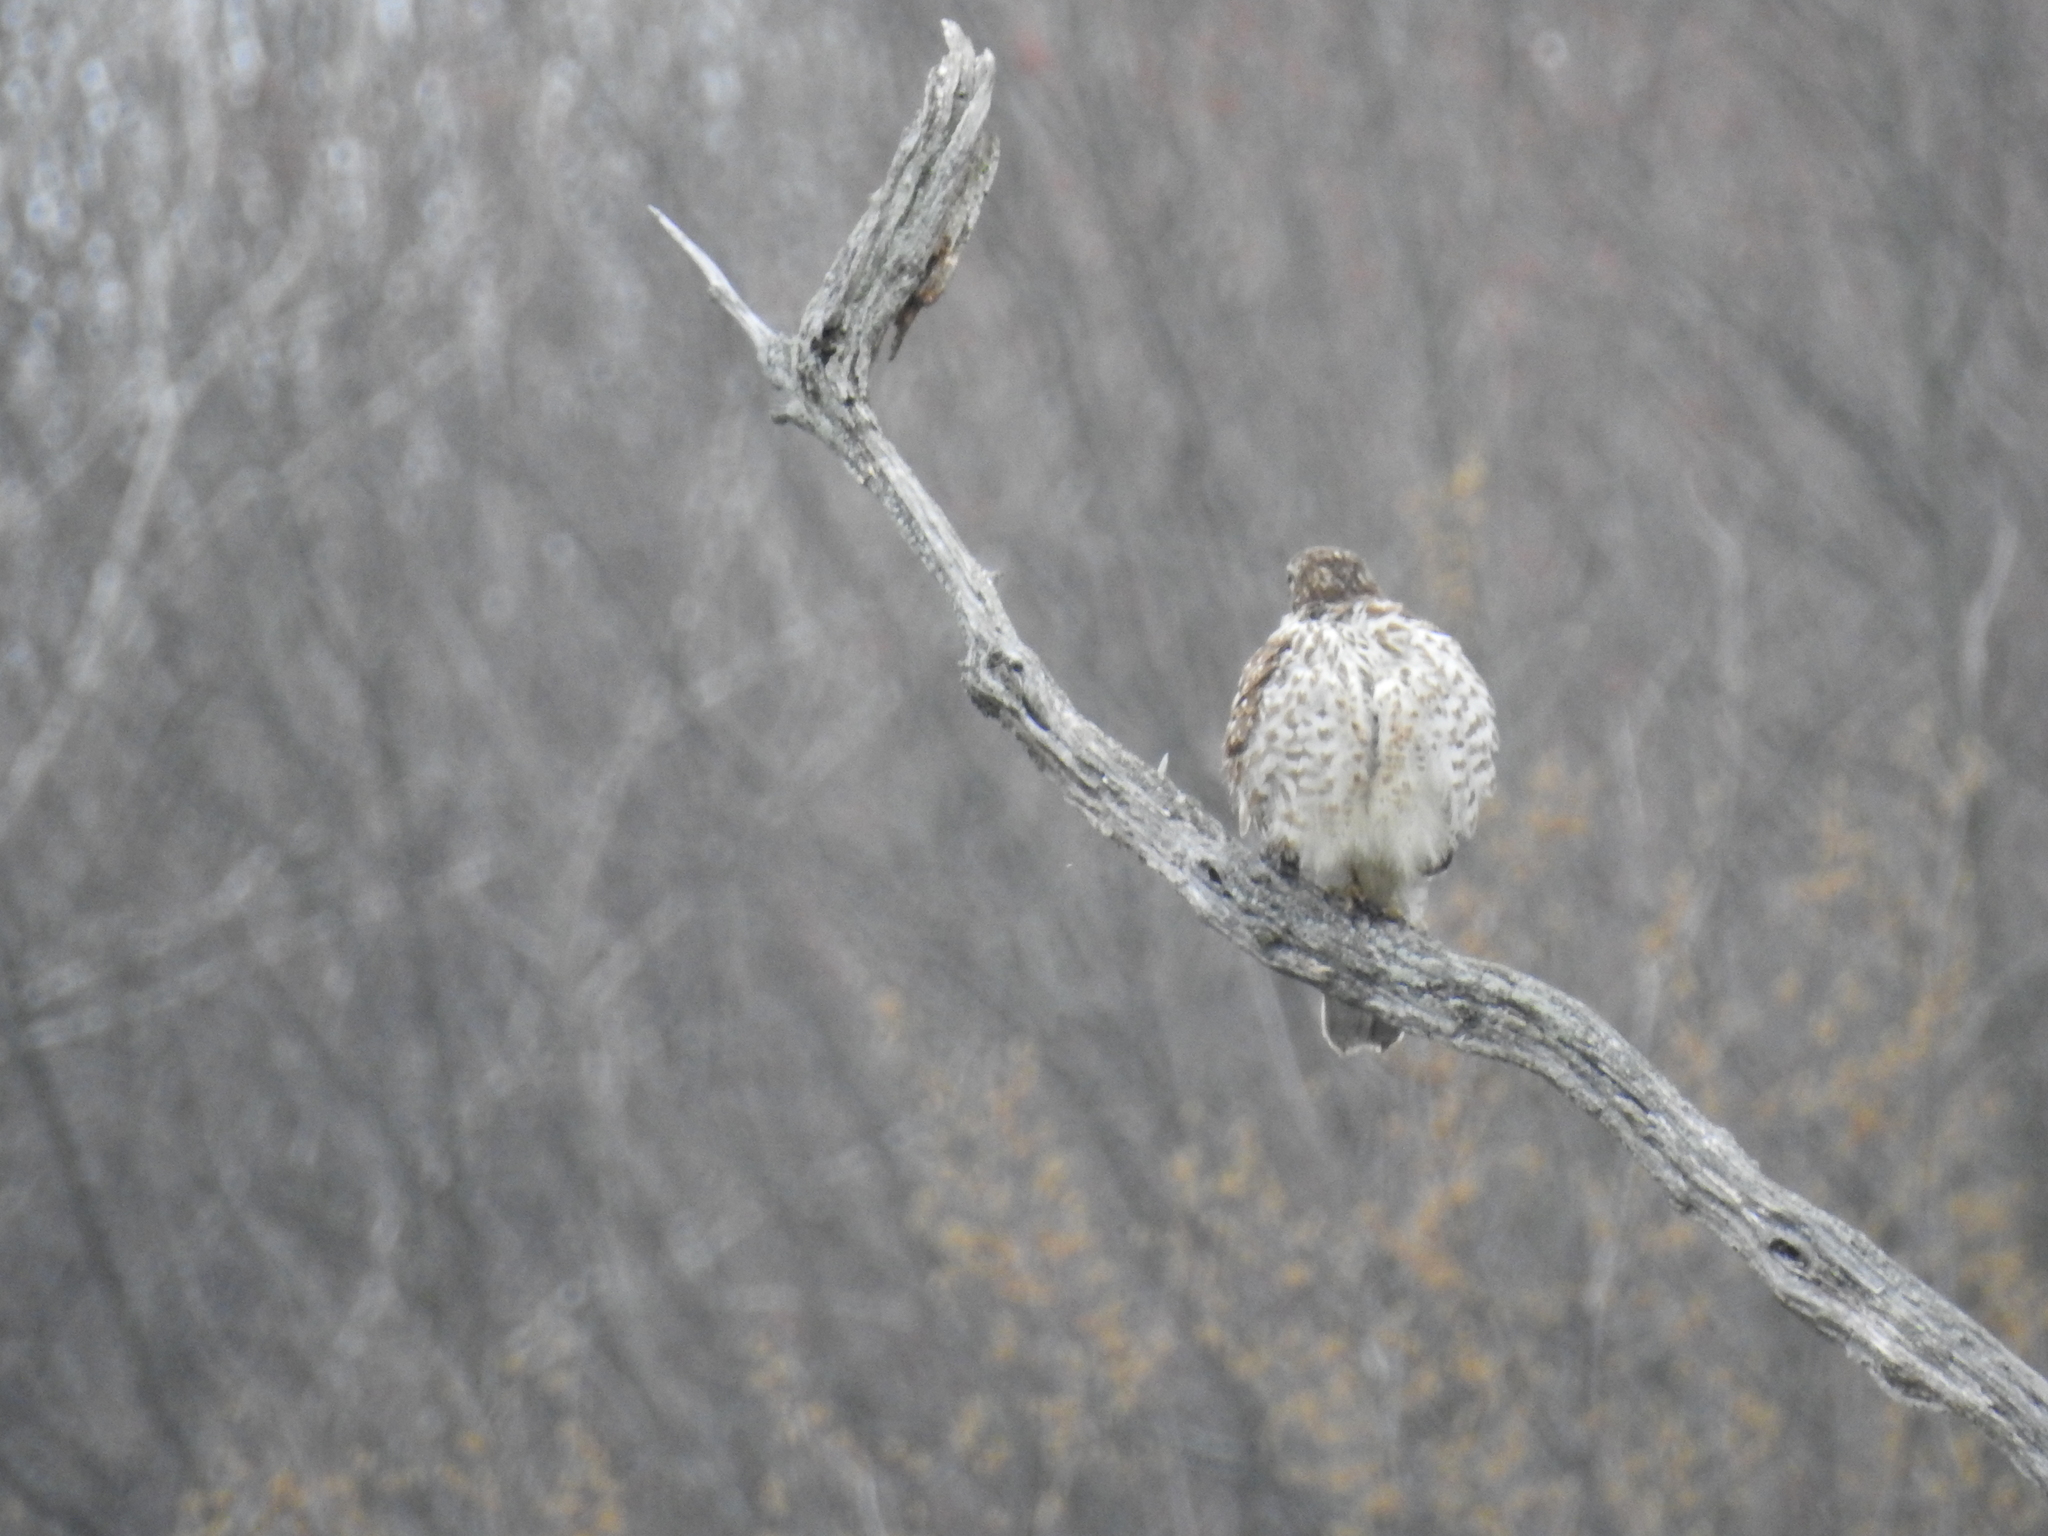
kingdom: Animalia
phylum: Chordata
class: Aves
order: Accipitriformes
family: Accipitridae
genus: Buteo
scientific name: Buteo lineatus
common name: Red-shouldered hawk
